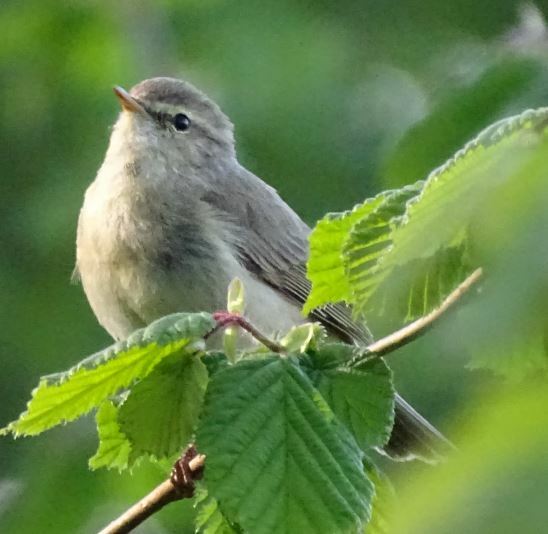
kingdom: Animalia
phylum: Chordata
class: Aves
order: Passeriformes
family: Phylloscopidae
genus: Phylloscopus
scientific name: Phylloscopus collybita
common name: Common chiffchaff
